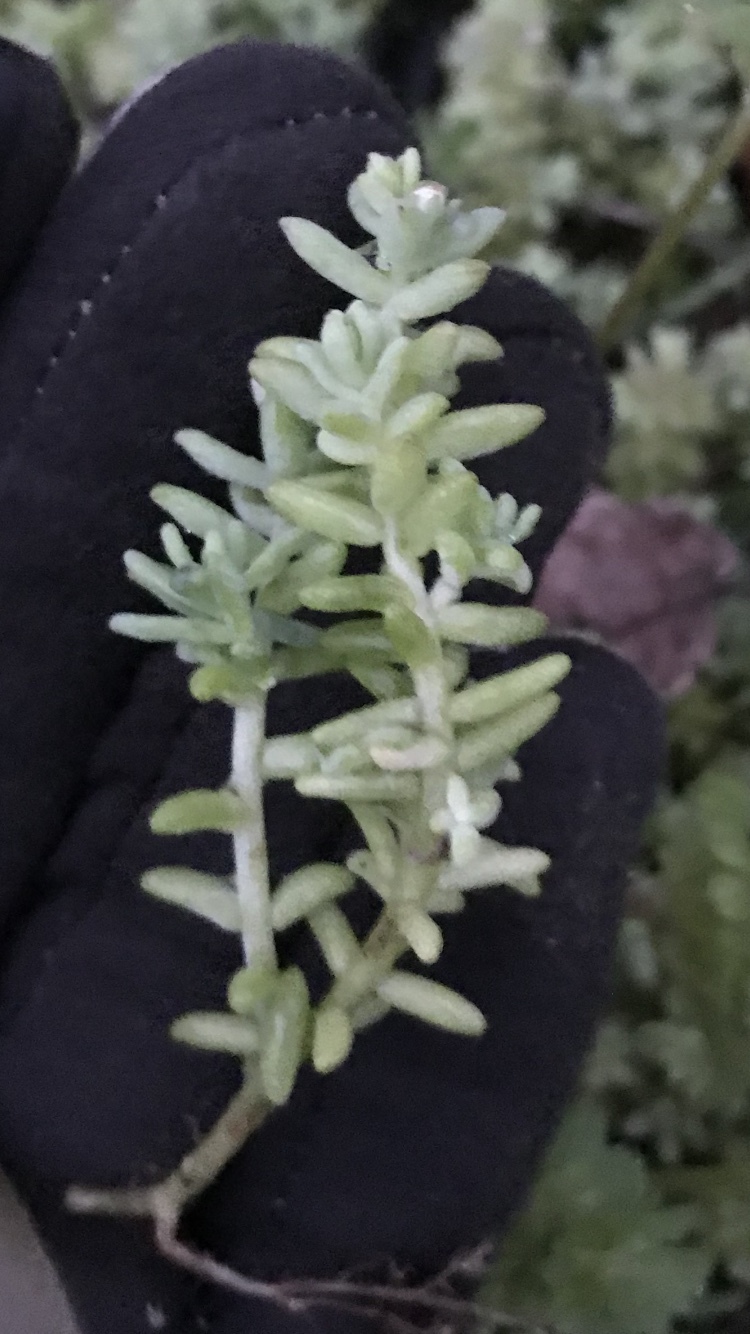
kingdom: Plantae
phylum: Tracheophyta
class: Magnoliopsida
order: Saxifragales
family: Crassulaceae
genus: Sedum
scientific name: Sedum nuttallii
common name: Yellow stonecrop
